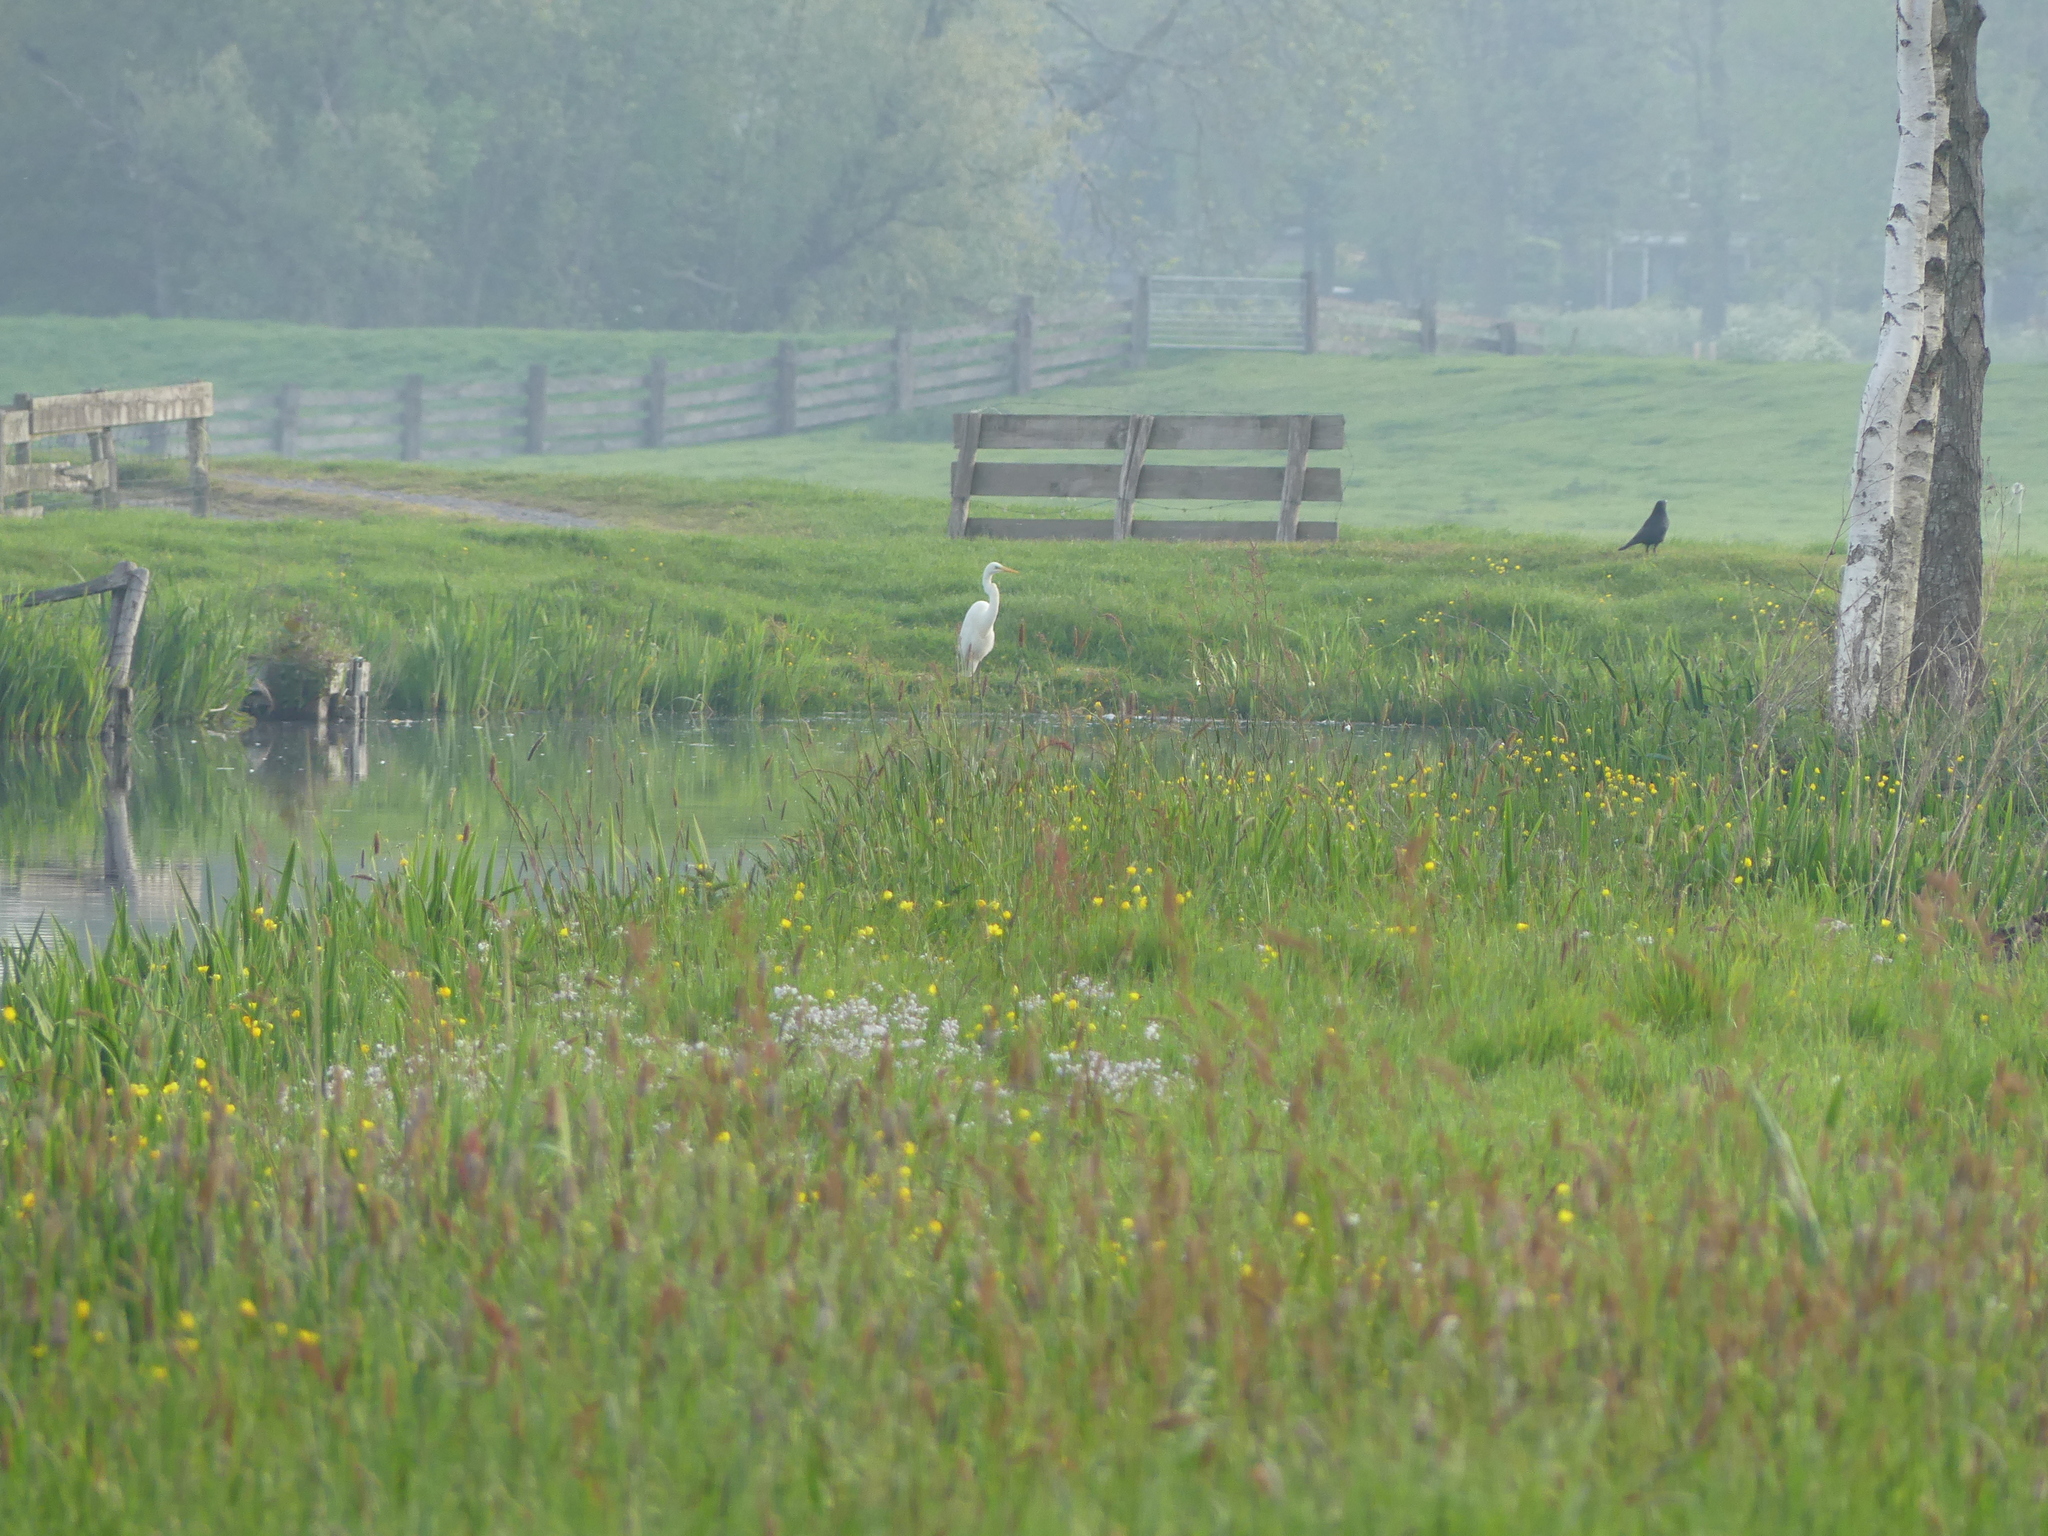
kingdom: Animalia
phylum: Chordata
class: Aves
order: Pelecaniformes
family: Ardeidae
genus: Ardea
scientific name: Ardea alba
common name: Great egret
